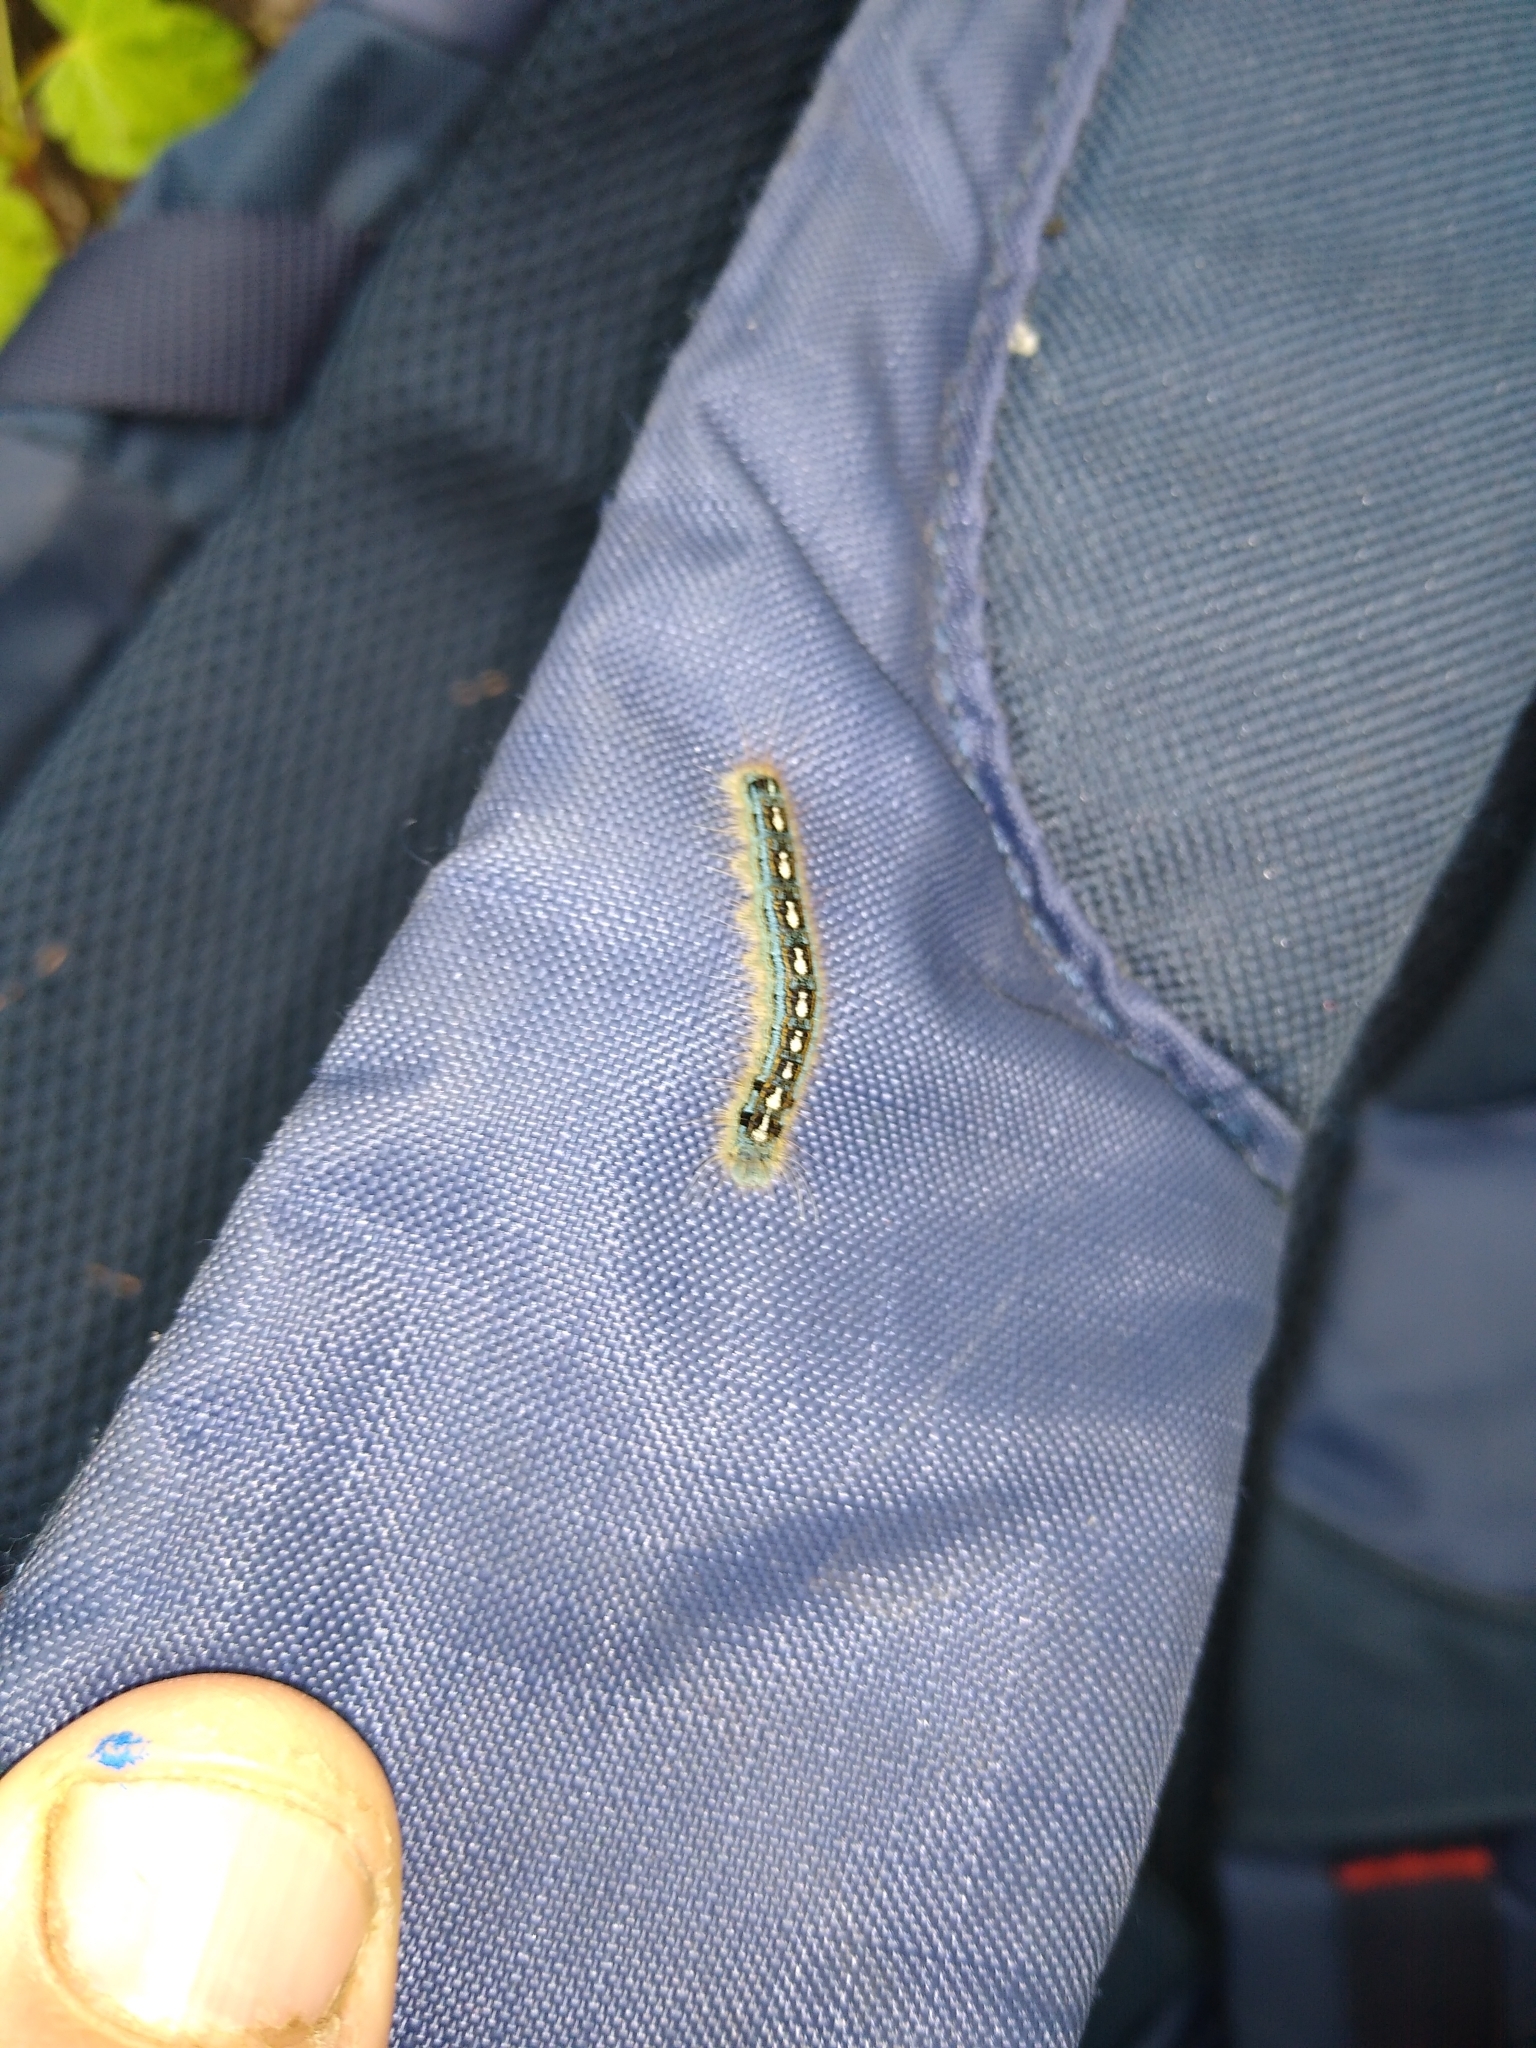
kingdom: Animalia
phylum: Arthropoda
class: Insecta
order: Lepidoptera
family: Lasiocampidae
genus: Malacosoma
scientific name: Malacosoma disstria
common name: Forest tent caterpillar
